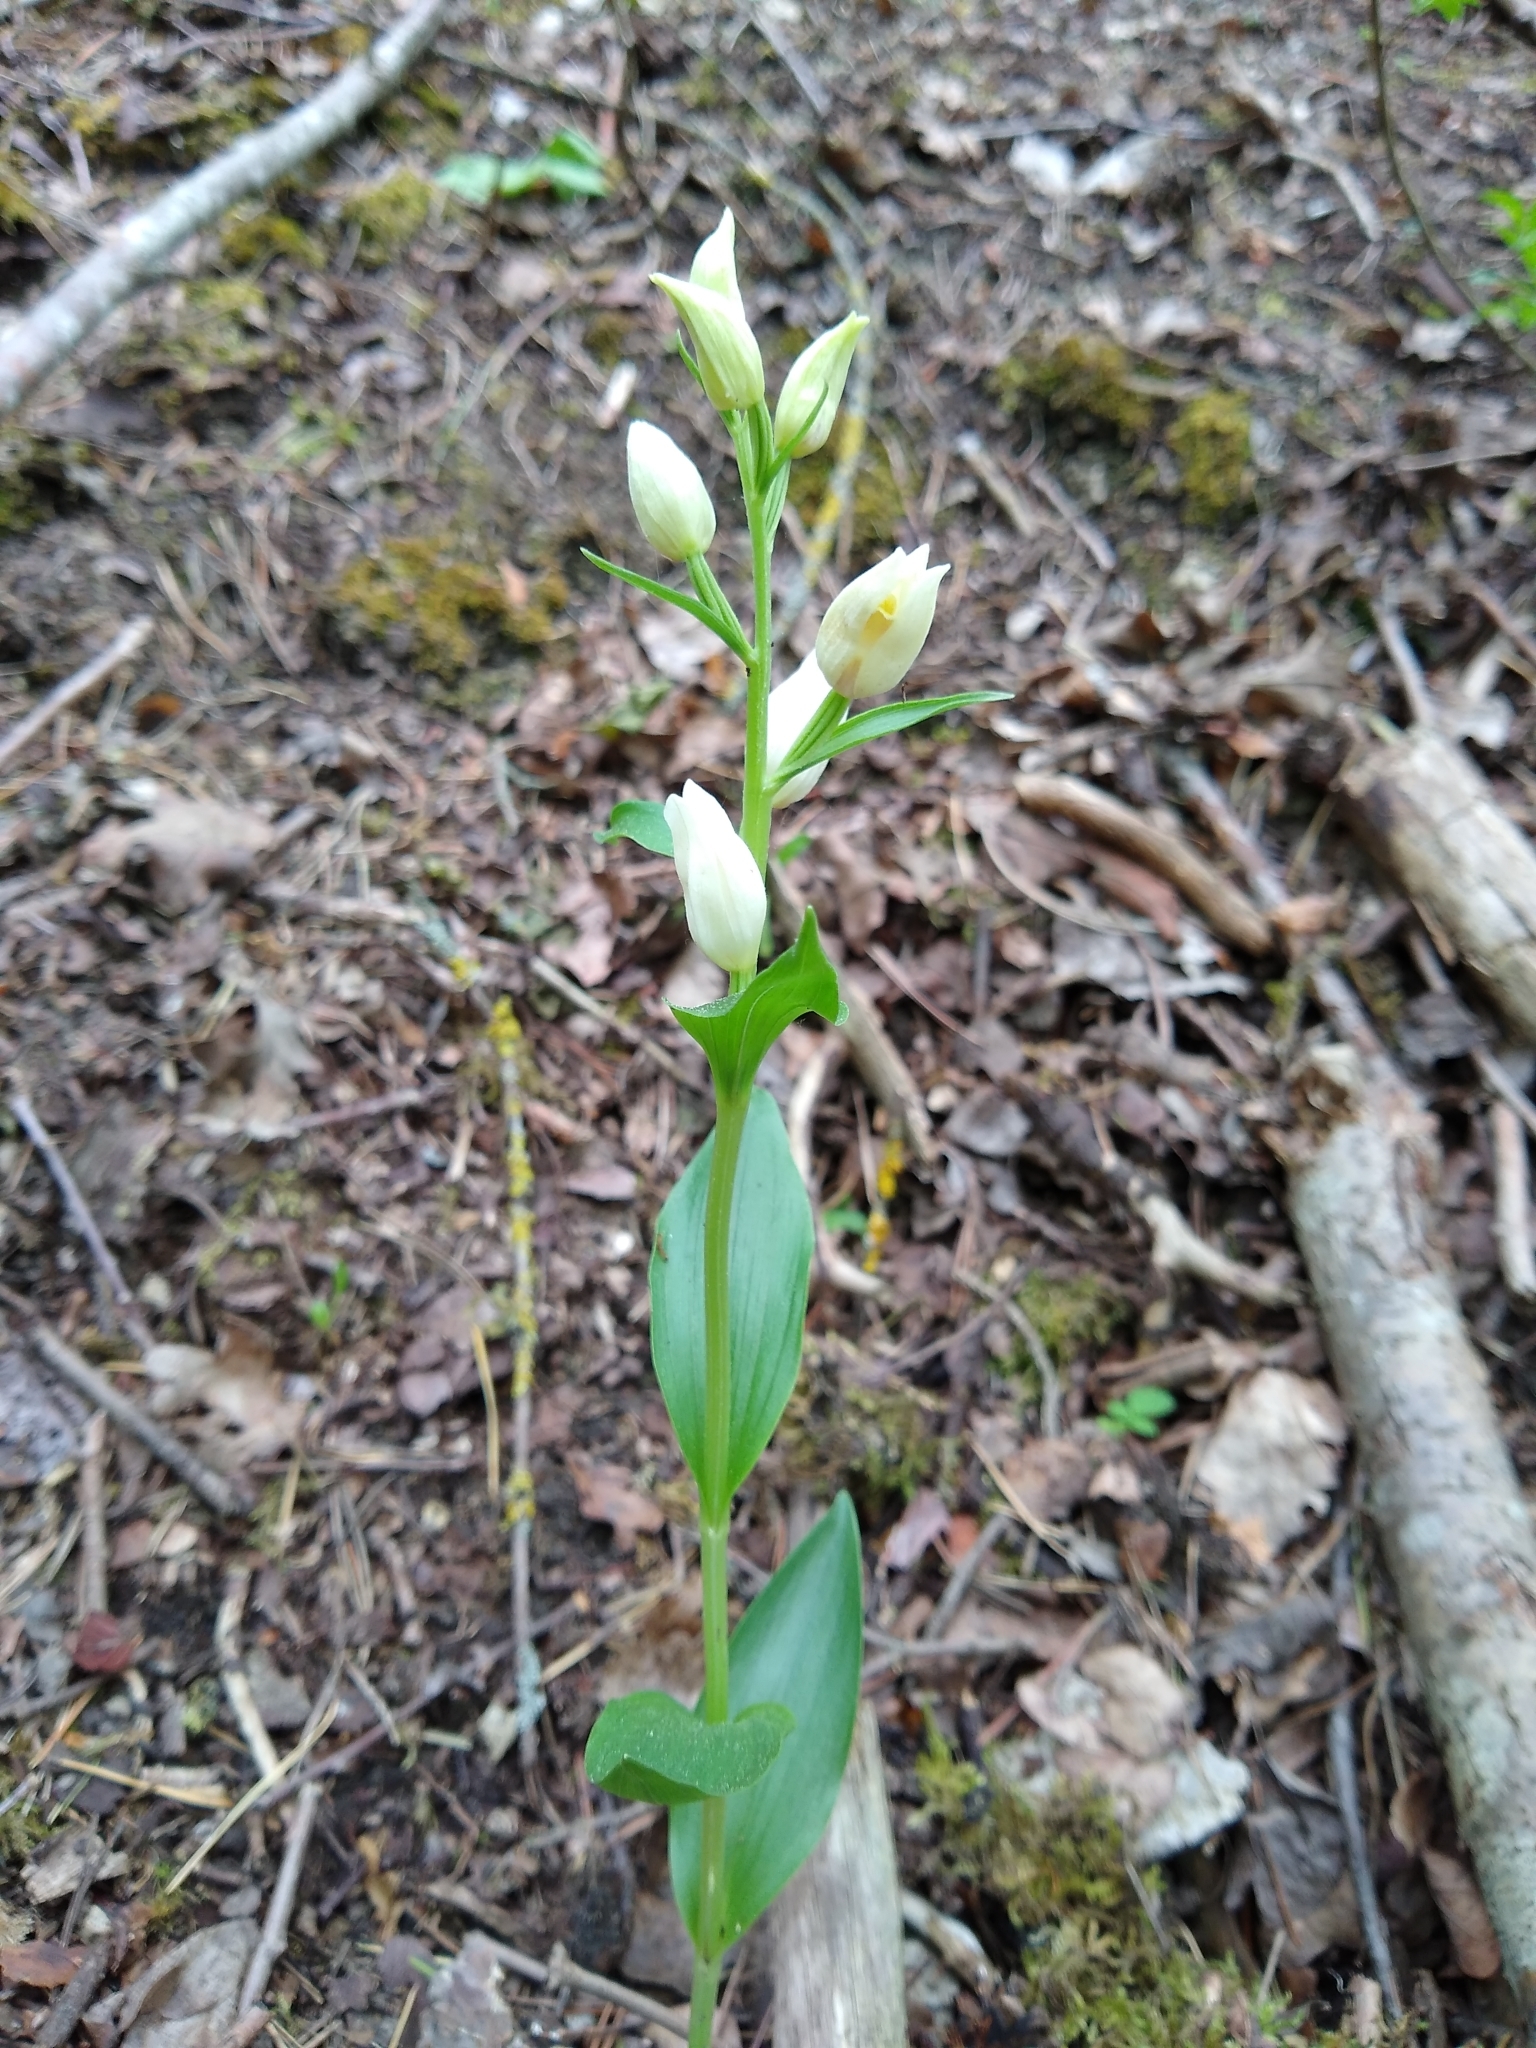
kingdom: Plantae
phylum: Tracheophyta
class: Liliopsida
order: Asparagales
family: Orchidaceae
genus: Cephalanthera
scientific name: Cephalanthera damasonium
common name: White helleborine
